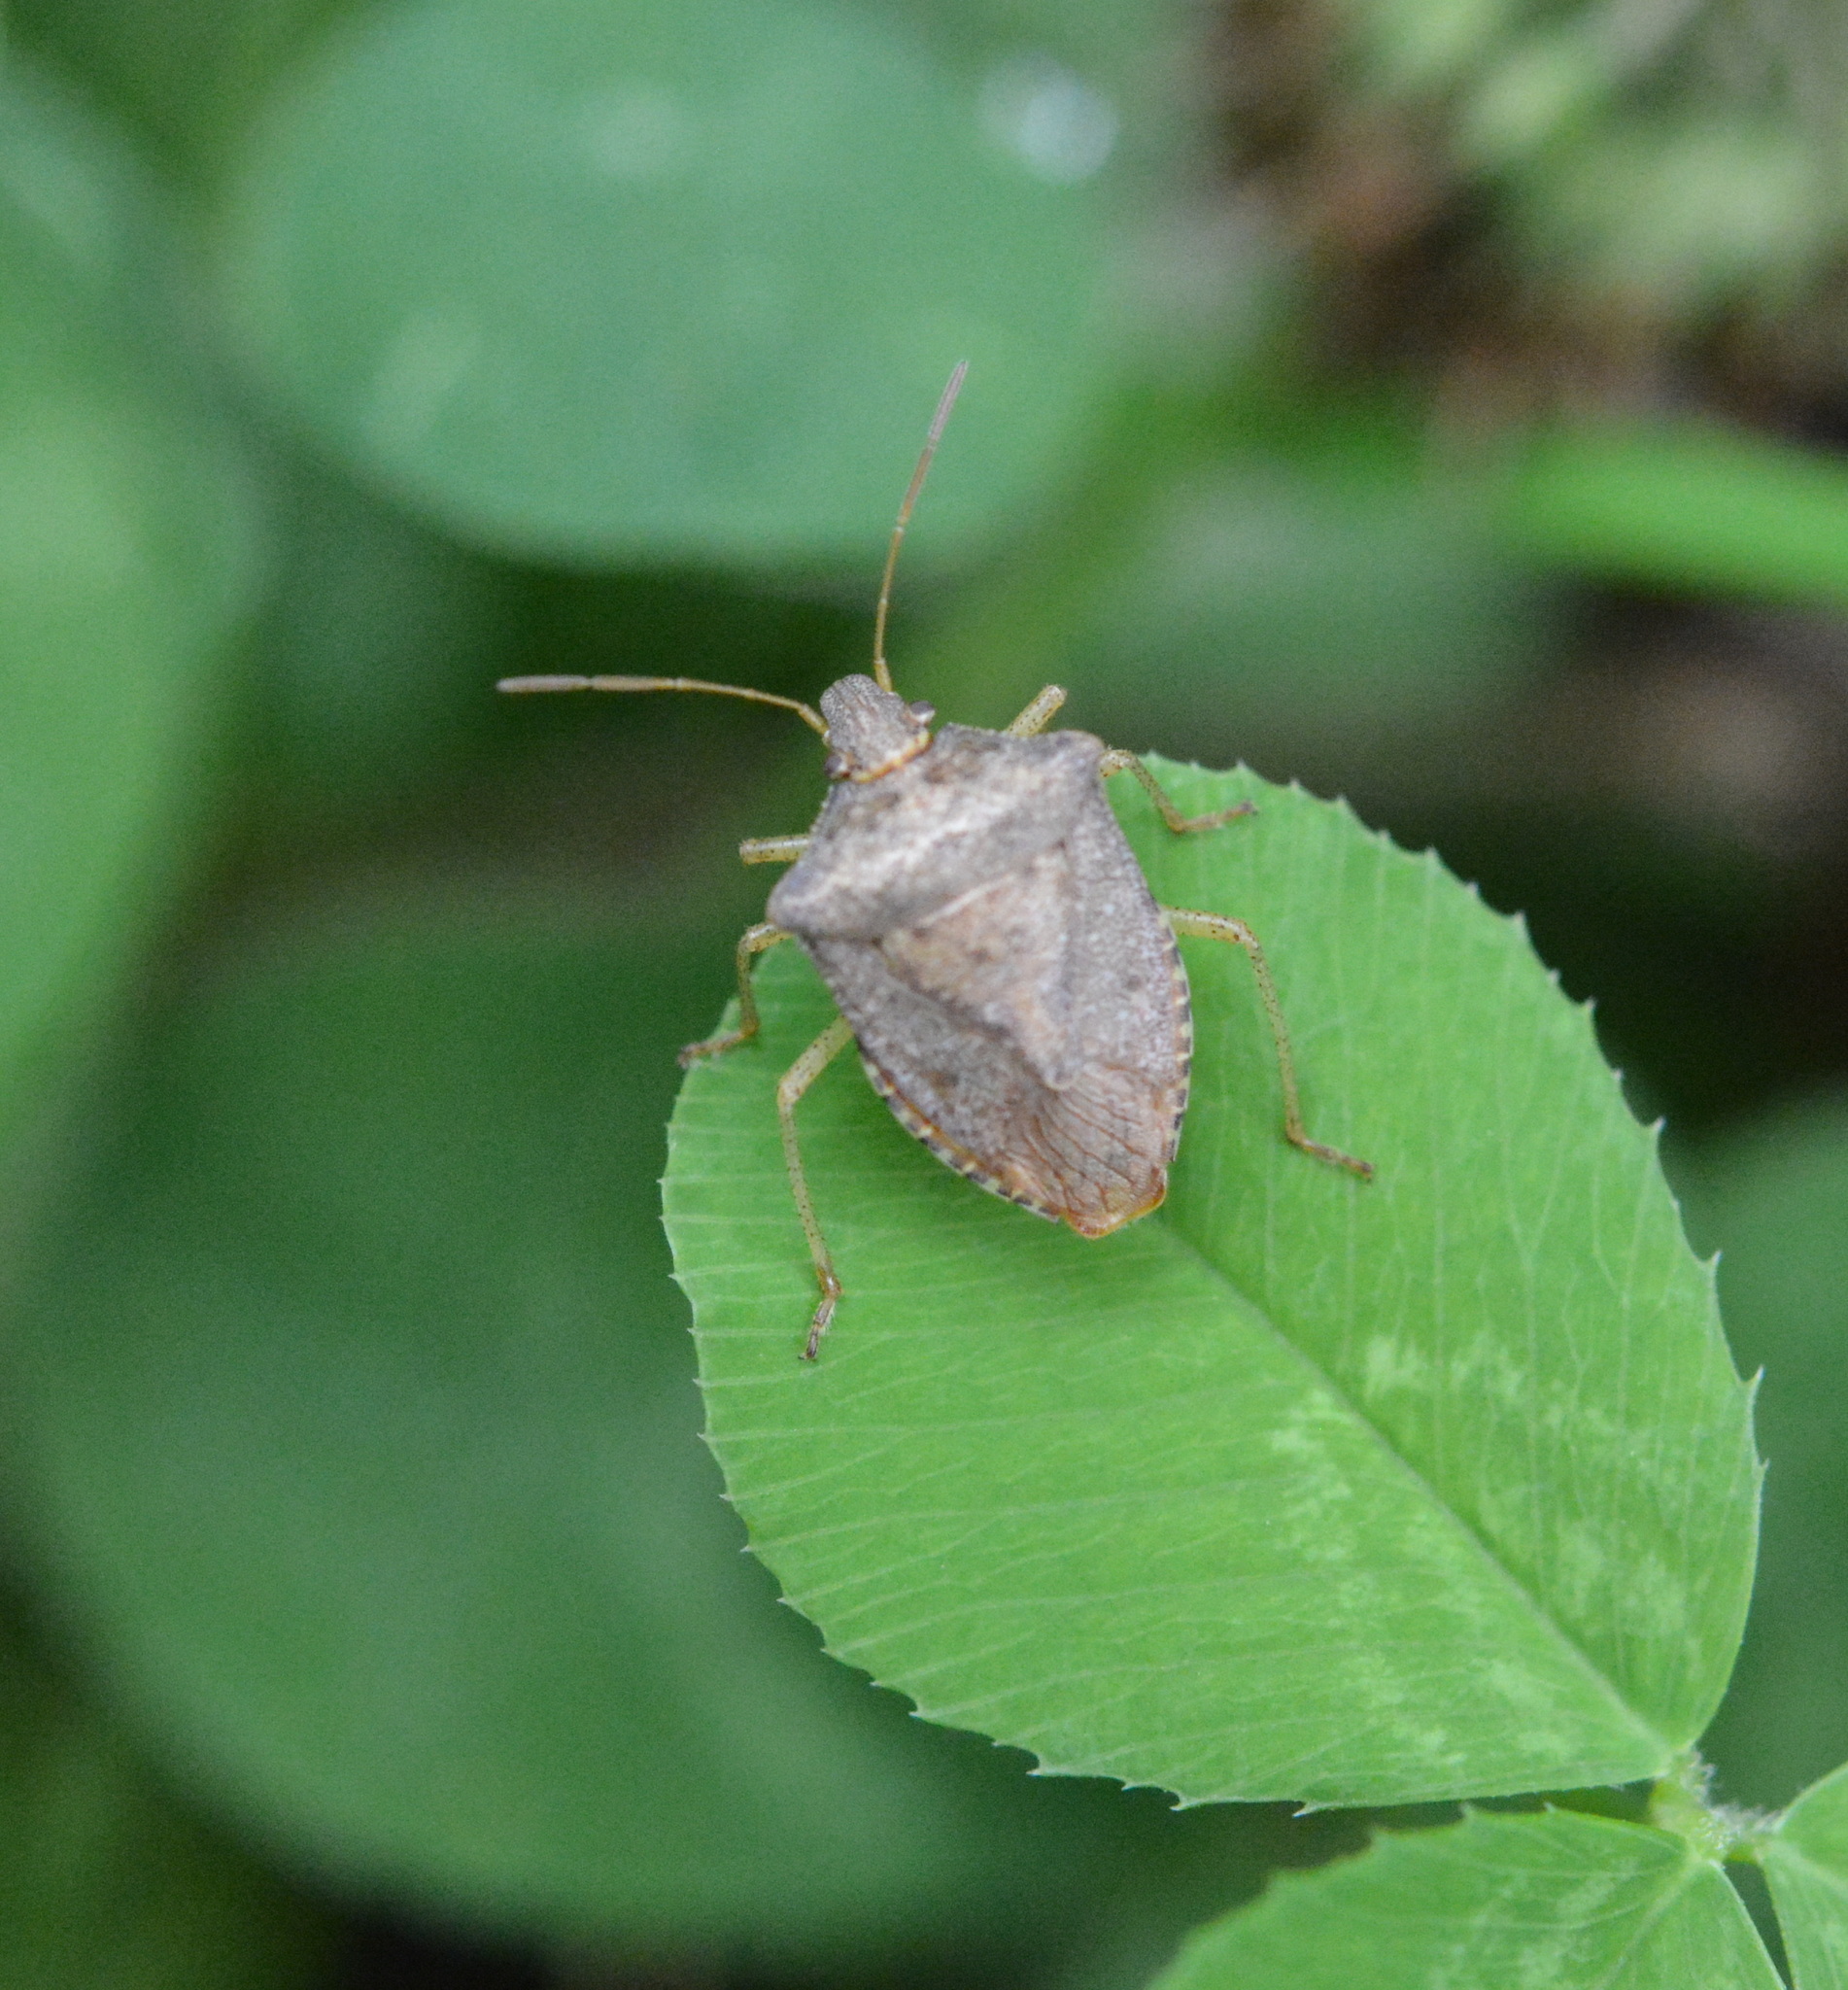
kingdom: Animalia
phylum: Arthropoda
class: Insecta
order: Hemiptera
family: Pentatomidae
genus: Euschistus
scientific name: Euschistus servus
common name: Brown stink bug
